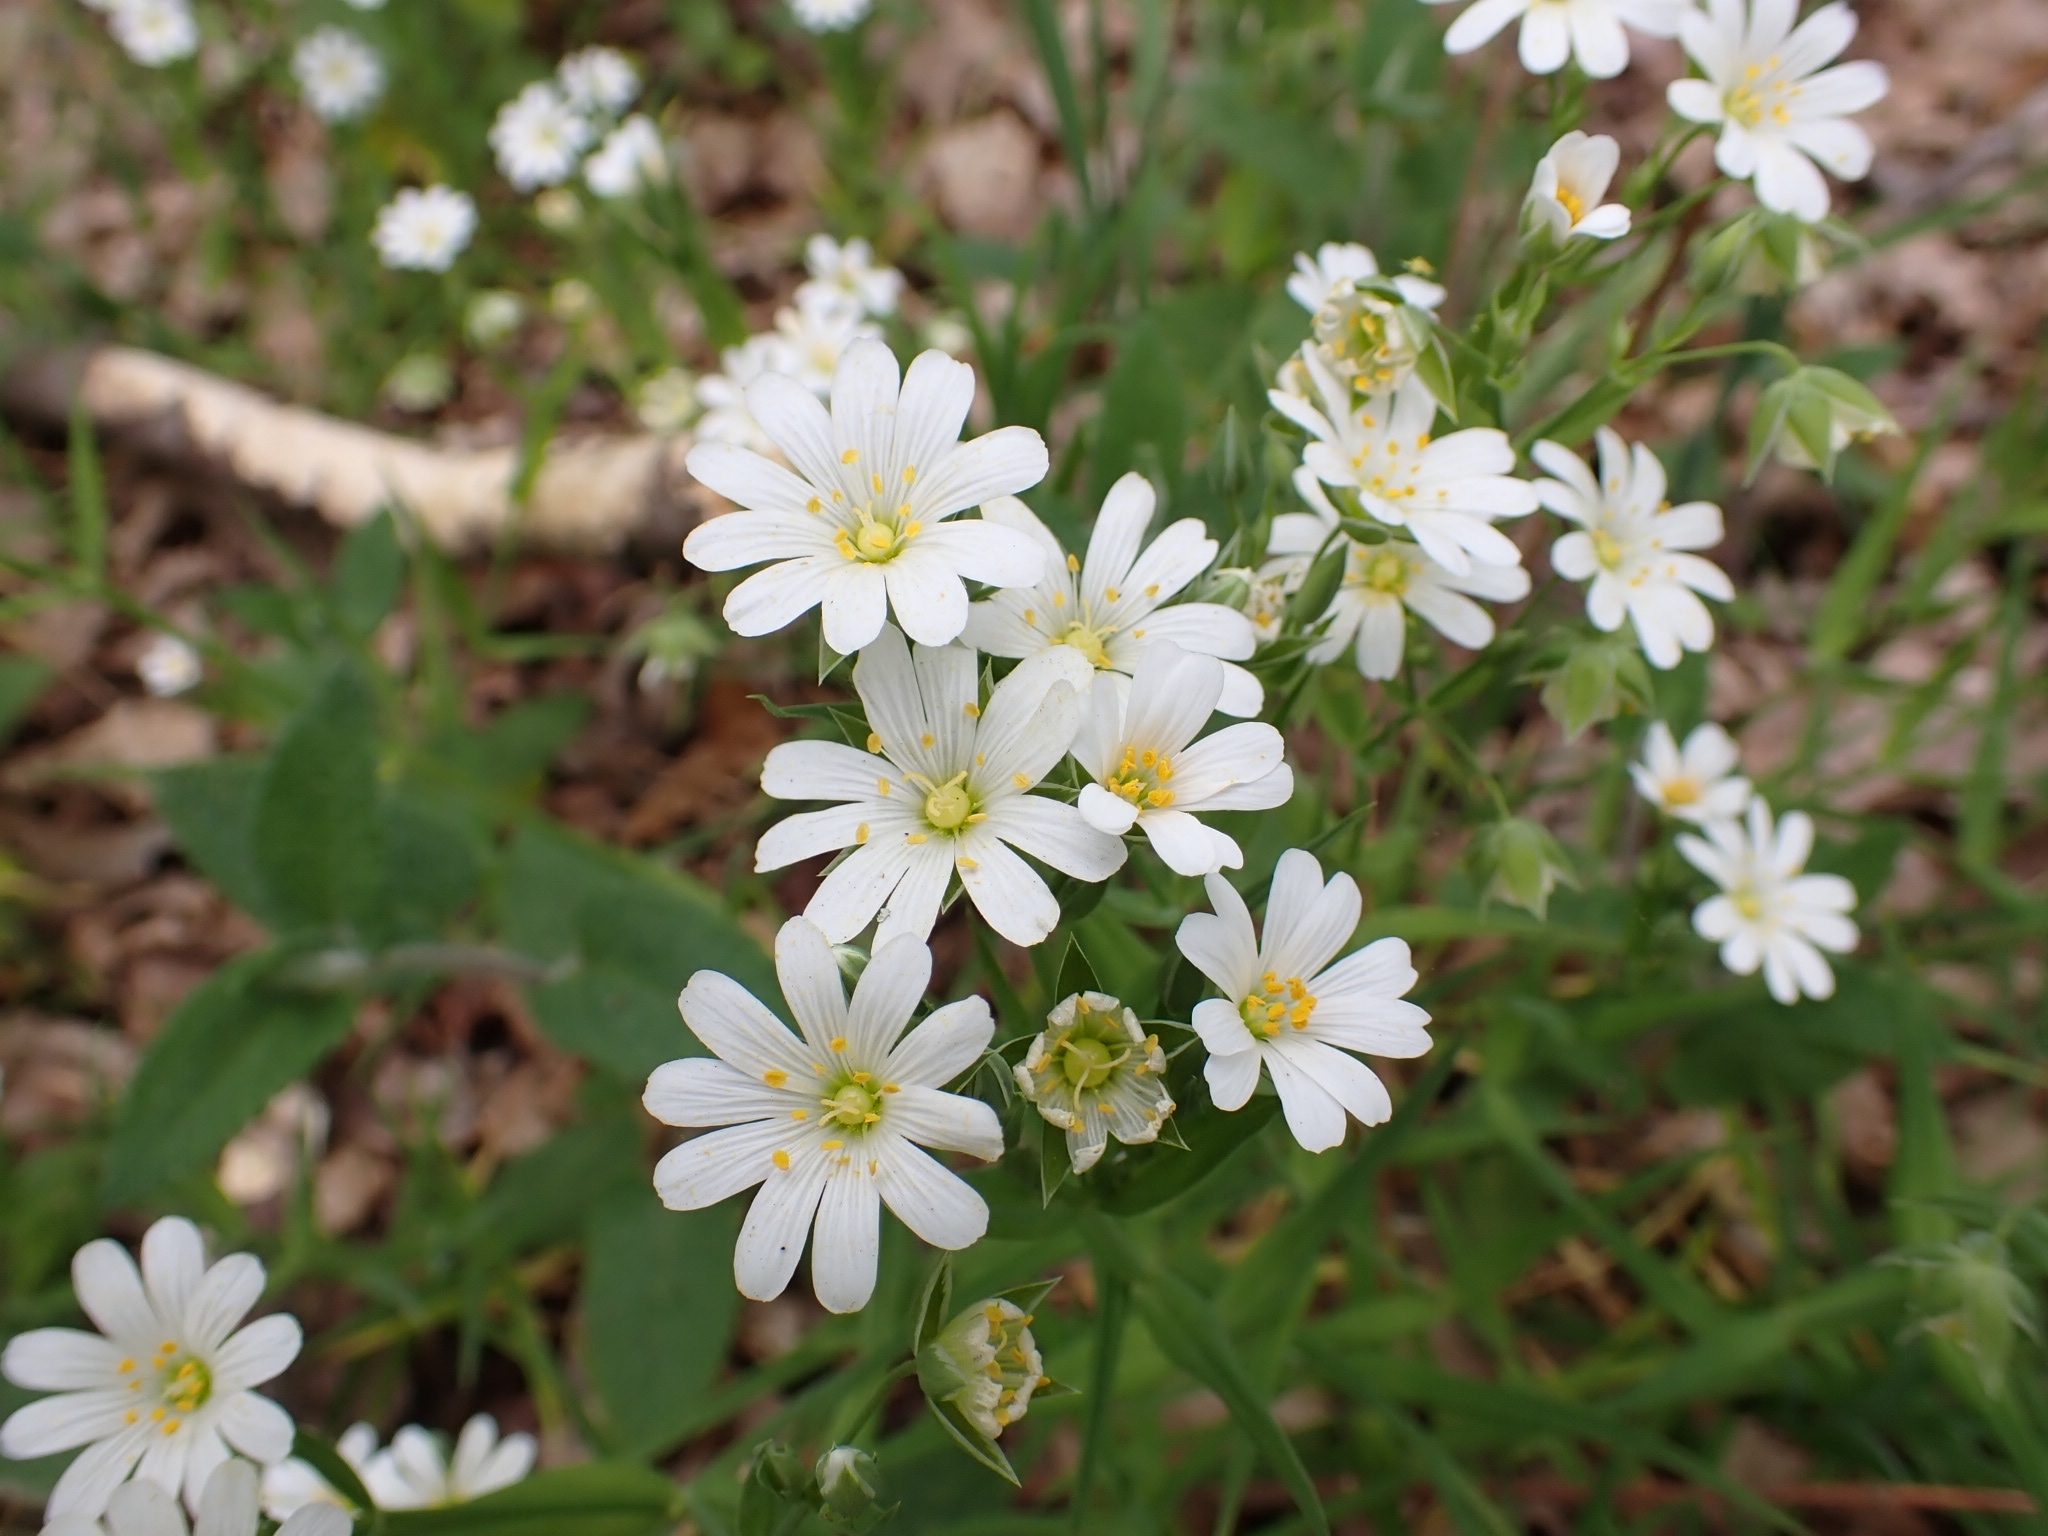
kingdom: Plantae
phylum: Tracheophyta
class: Magnoliopsida
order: Caryophyllales
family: Caryophyllaceae
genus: Rabelera
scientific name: Rabelera holostea
